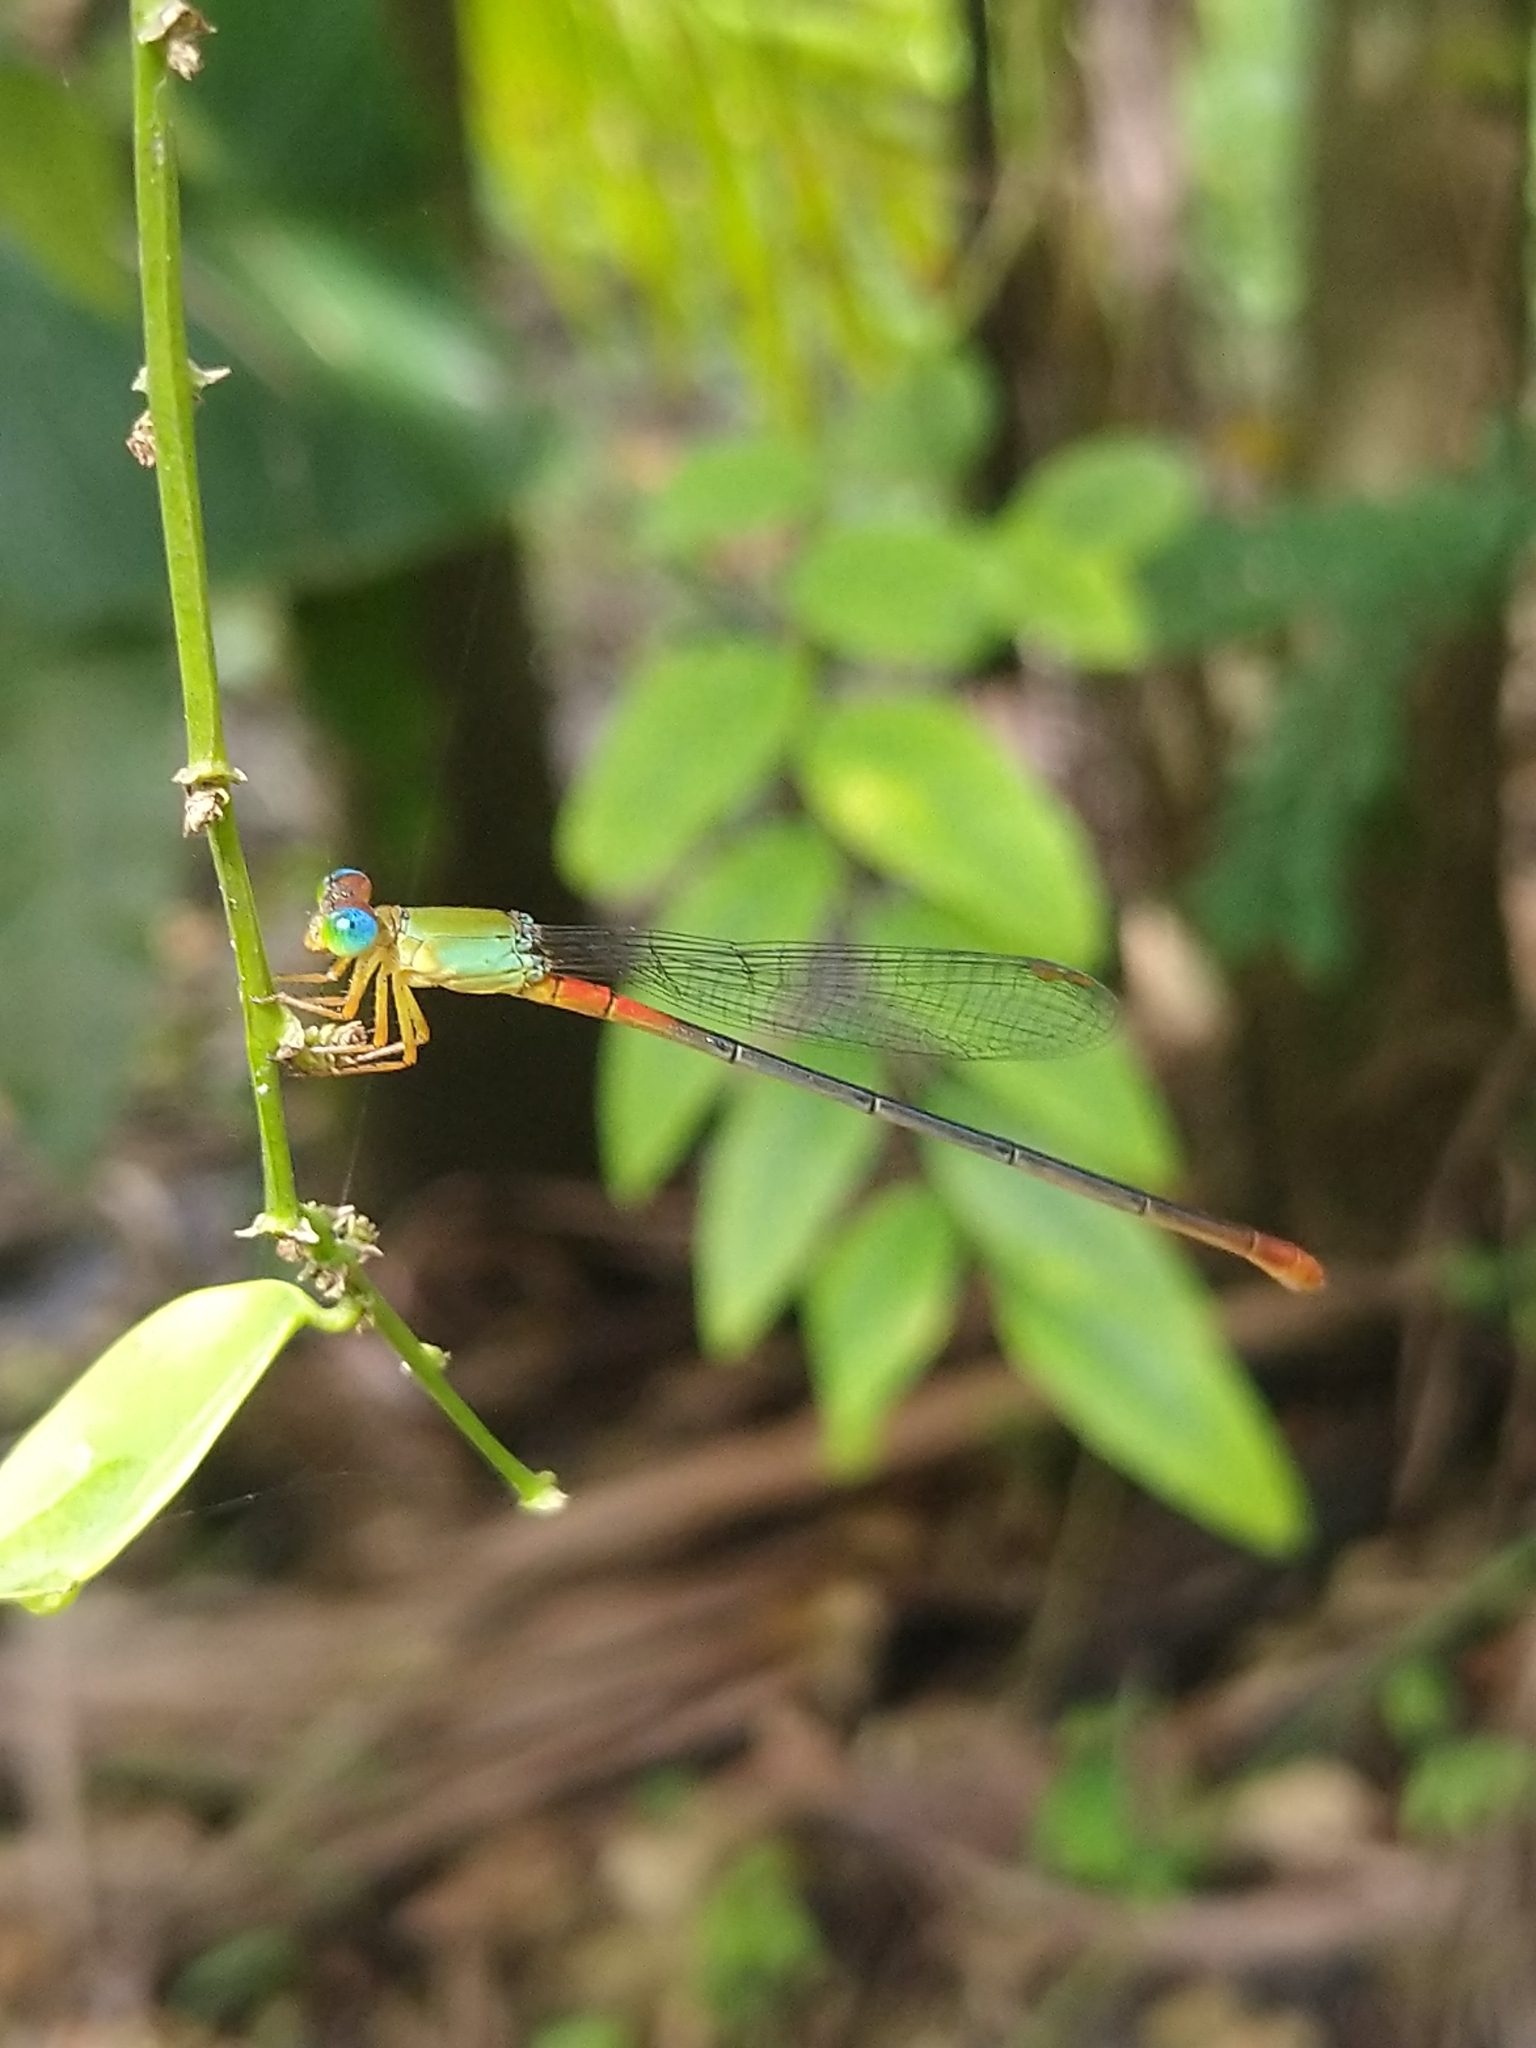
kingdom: Animalia
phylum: Arthropoda
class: Insecta
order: Odonata
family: Coenagrionidae
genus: Ceriagrion
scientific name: Ceriagrion cerinorubellum
